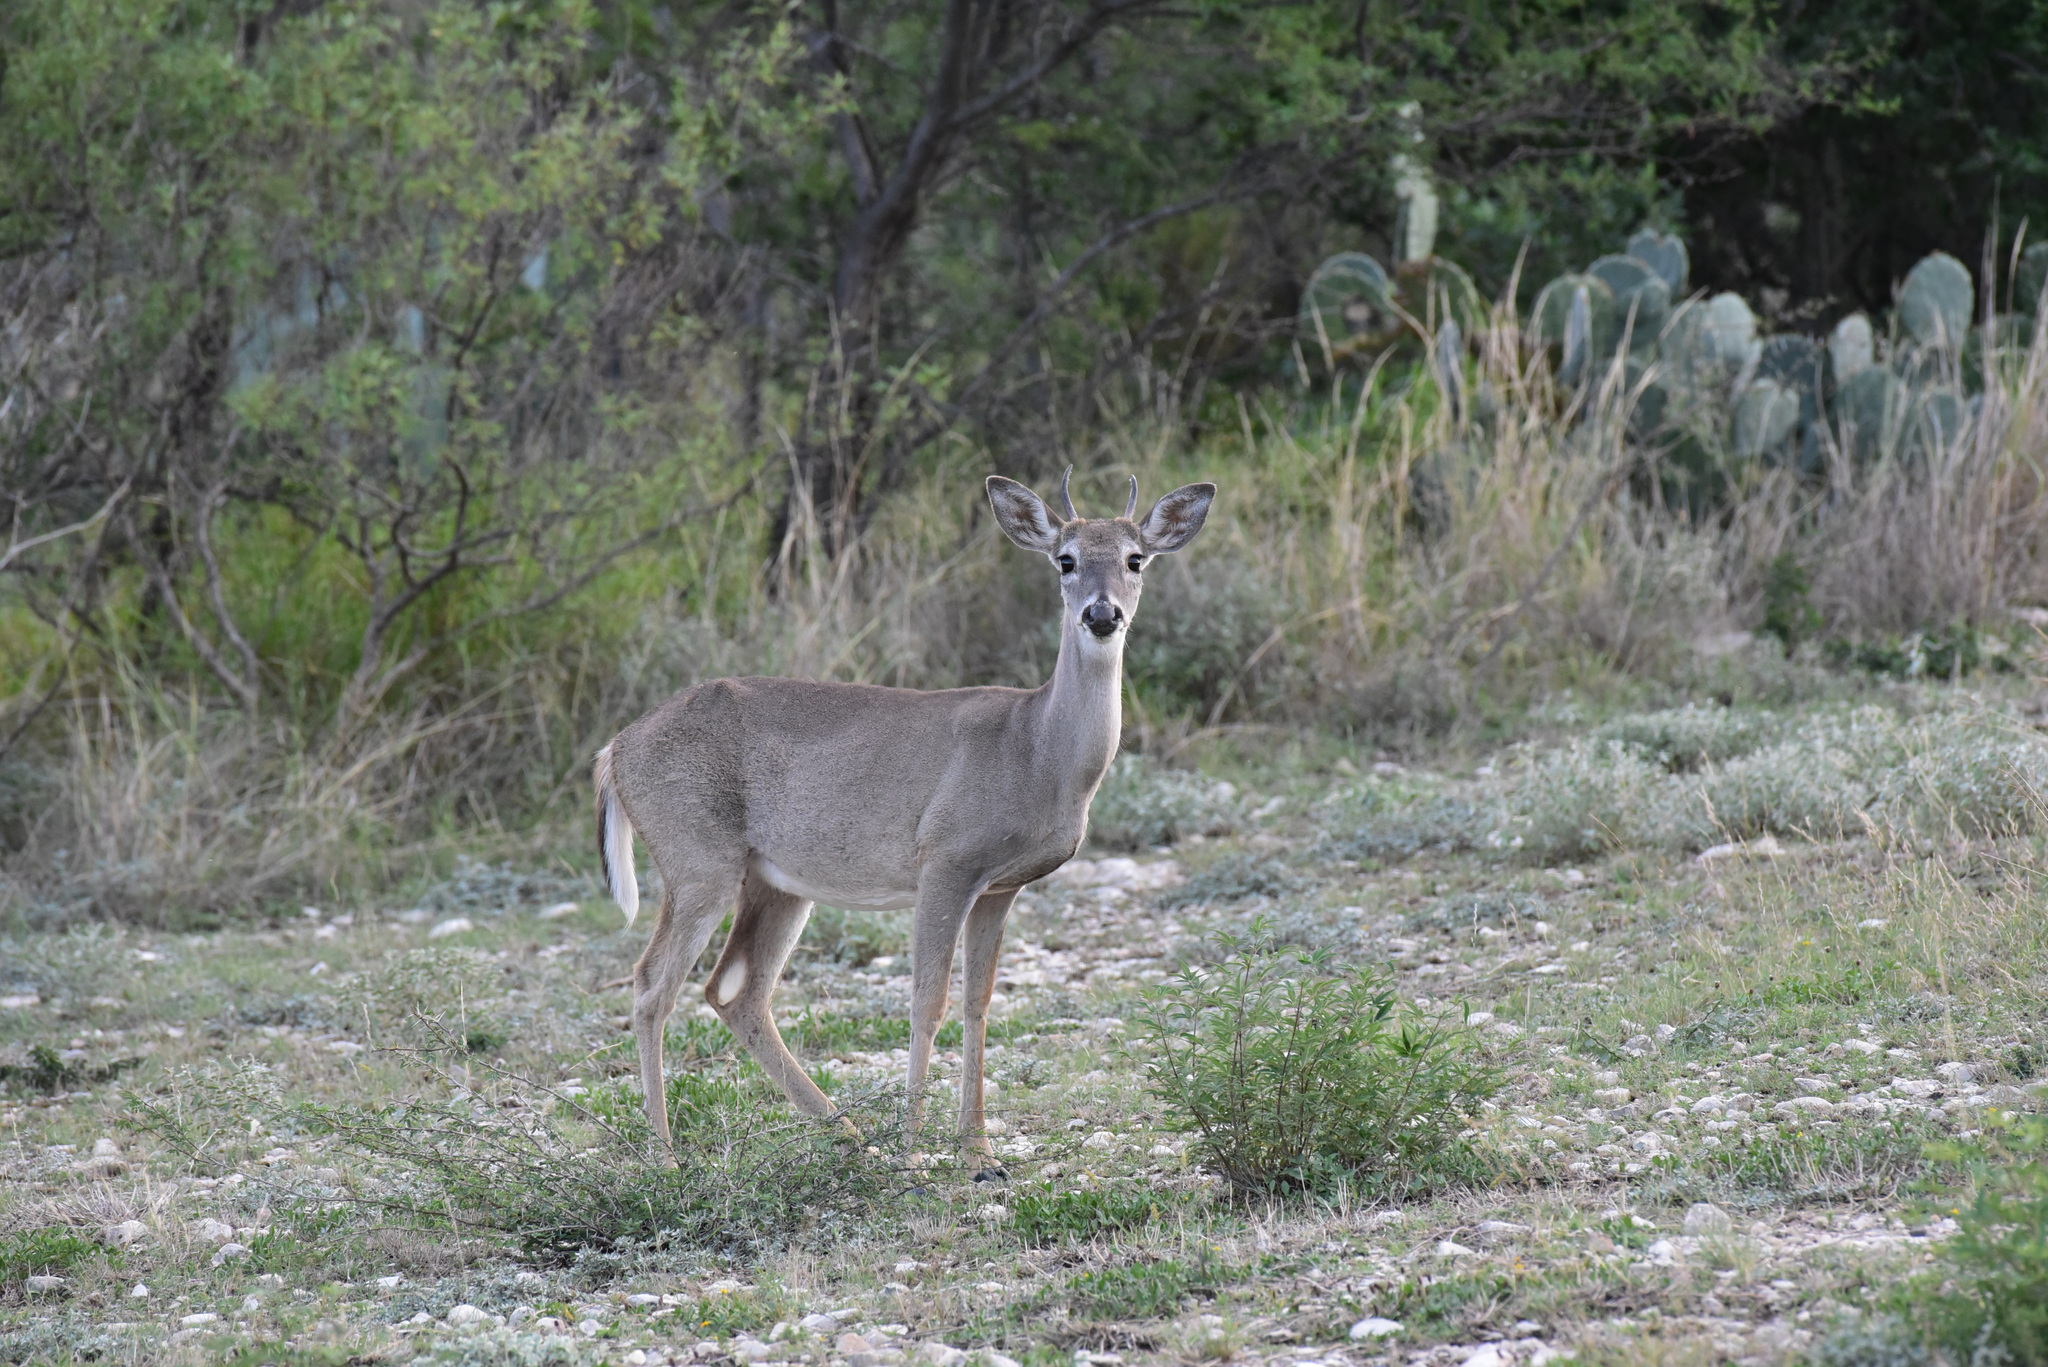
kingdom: Animalia
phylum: Chordata
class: Mammalia
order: Artiodactyla
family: Cervidae
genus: Odocoileus
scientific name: Odocoileus virginianus
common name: White-tailed deer
